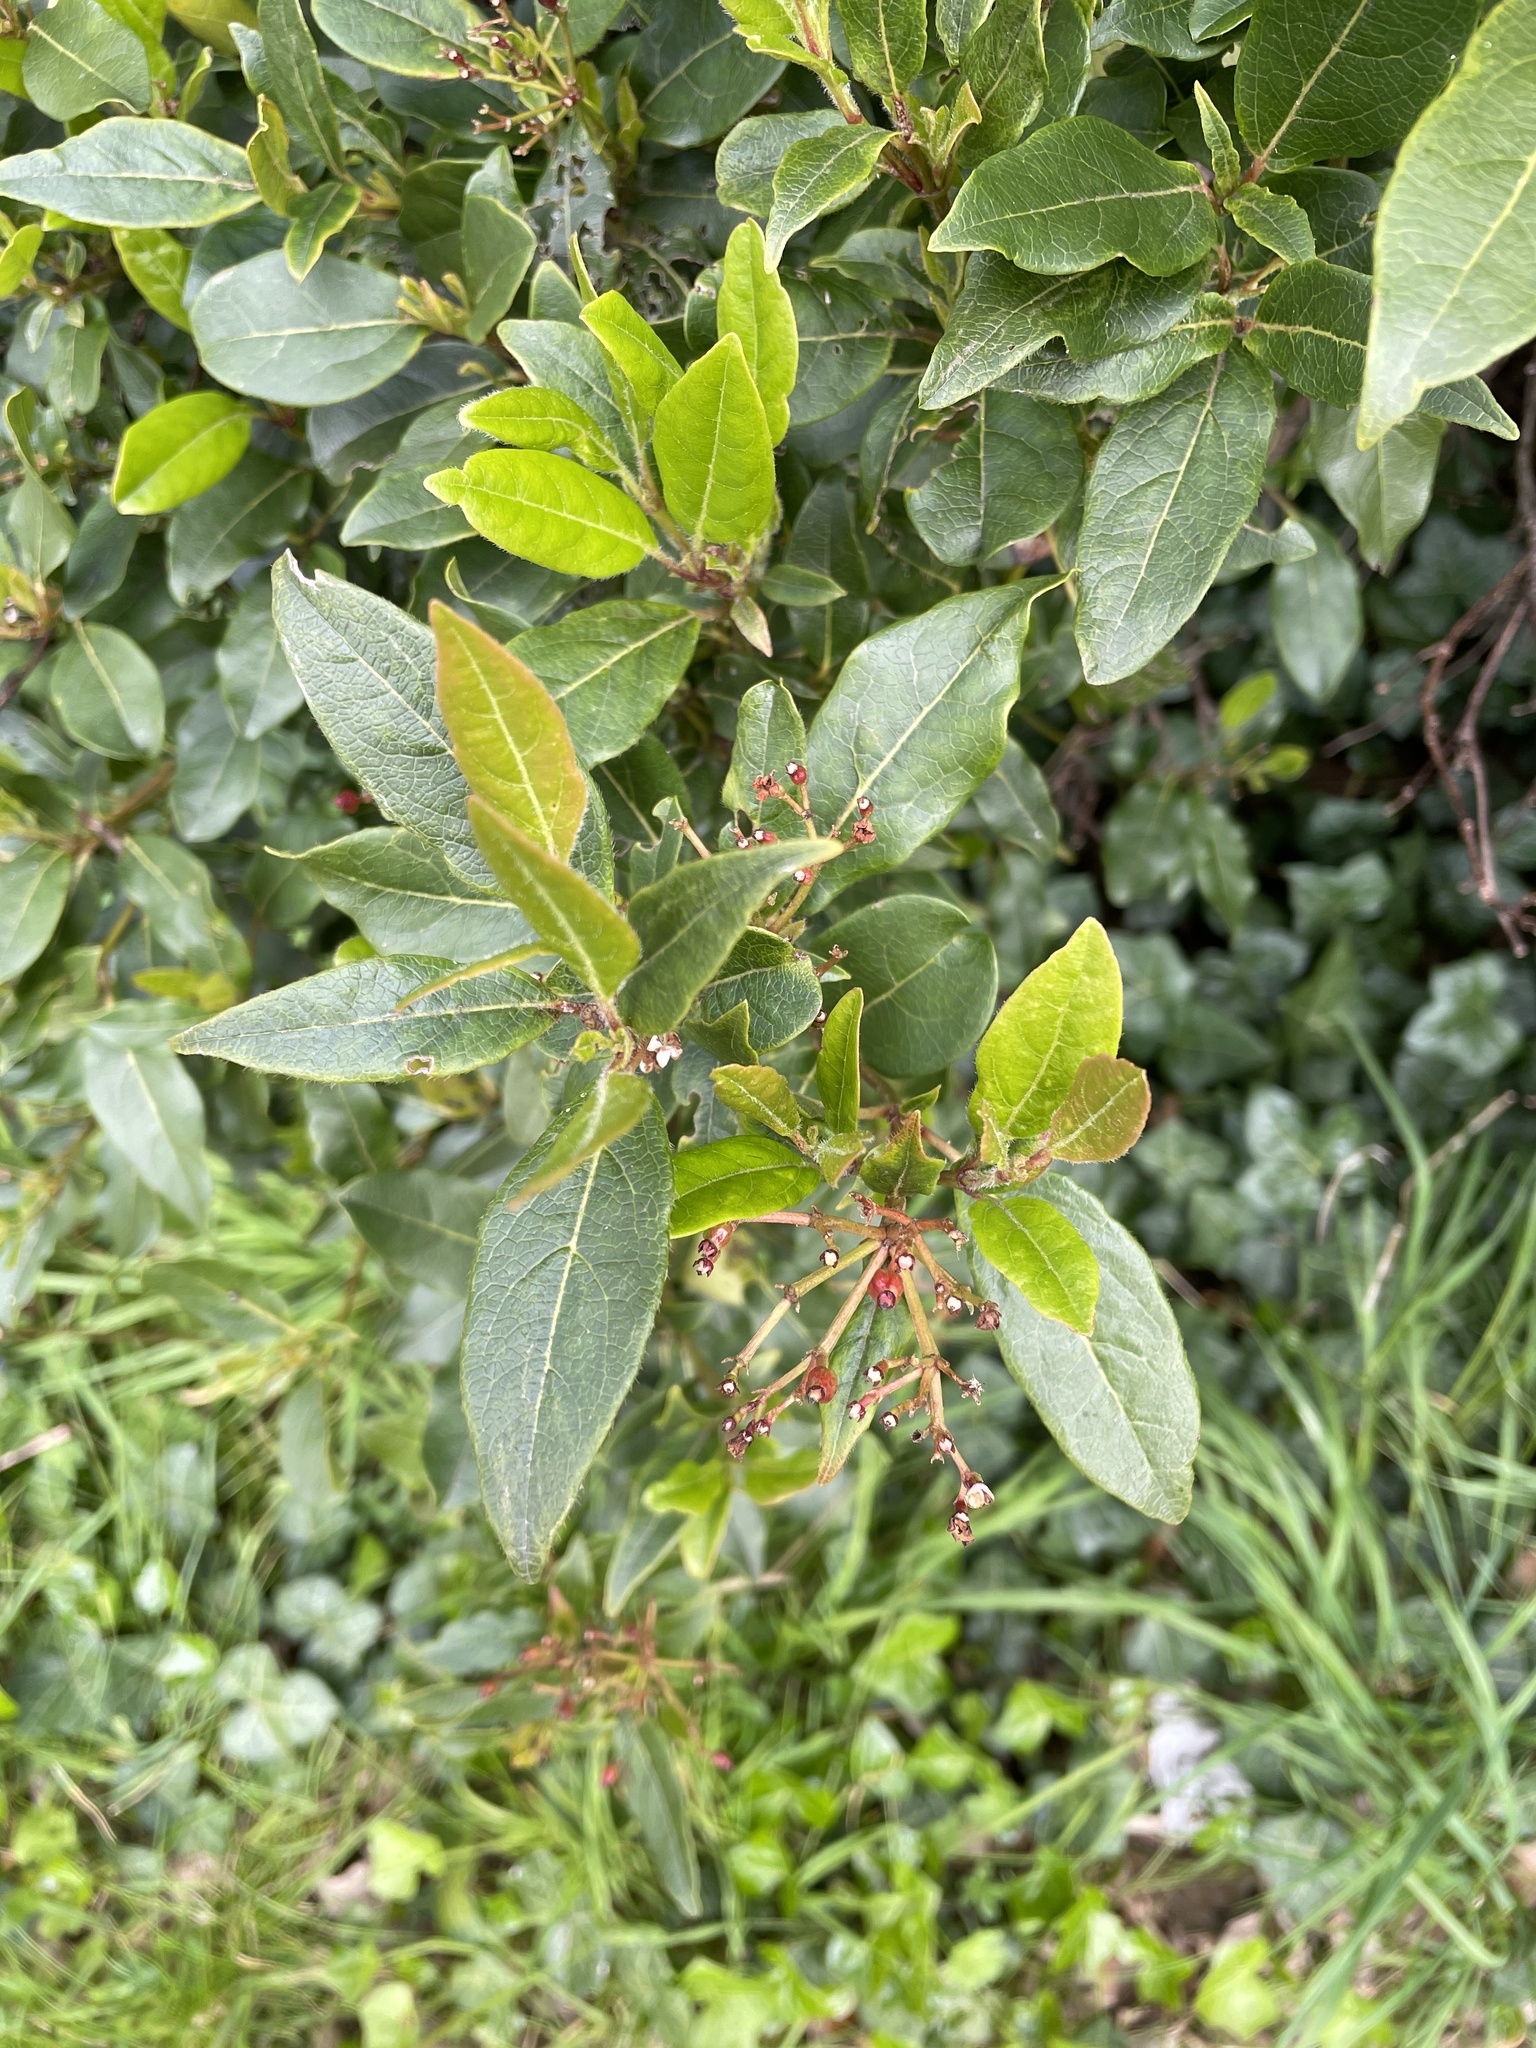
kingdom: Plantae
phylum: Tracheophyta
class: Magnoliopsida
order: Dipsacales
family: Viburnaceae
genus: Viburnum
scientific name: Viburnum tinus
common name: Laurustinus
